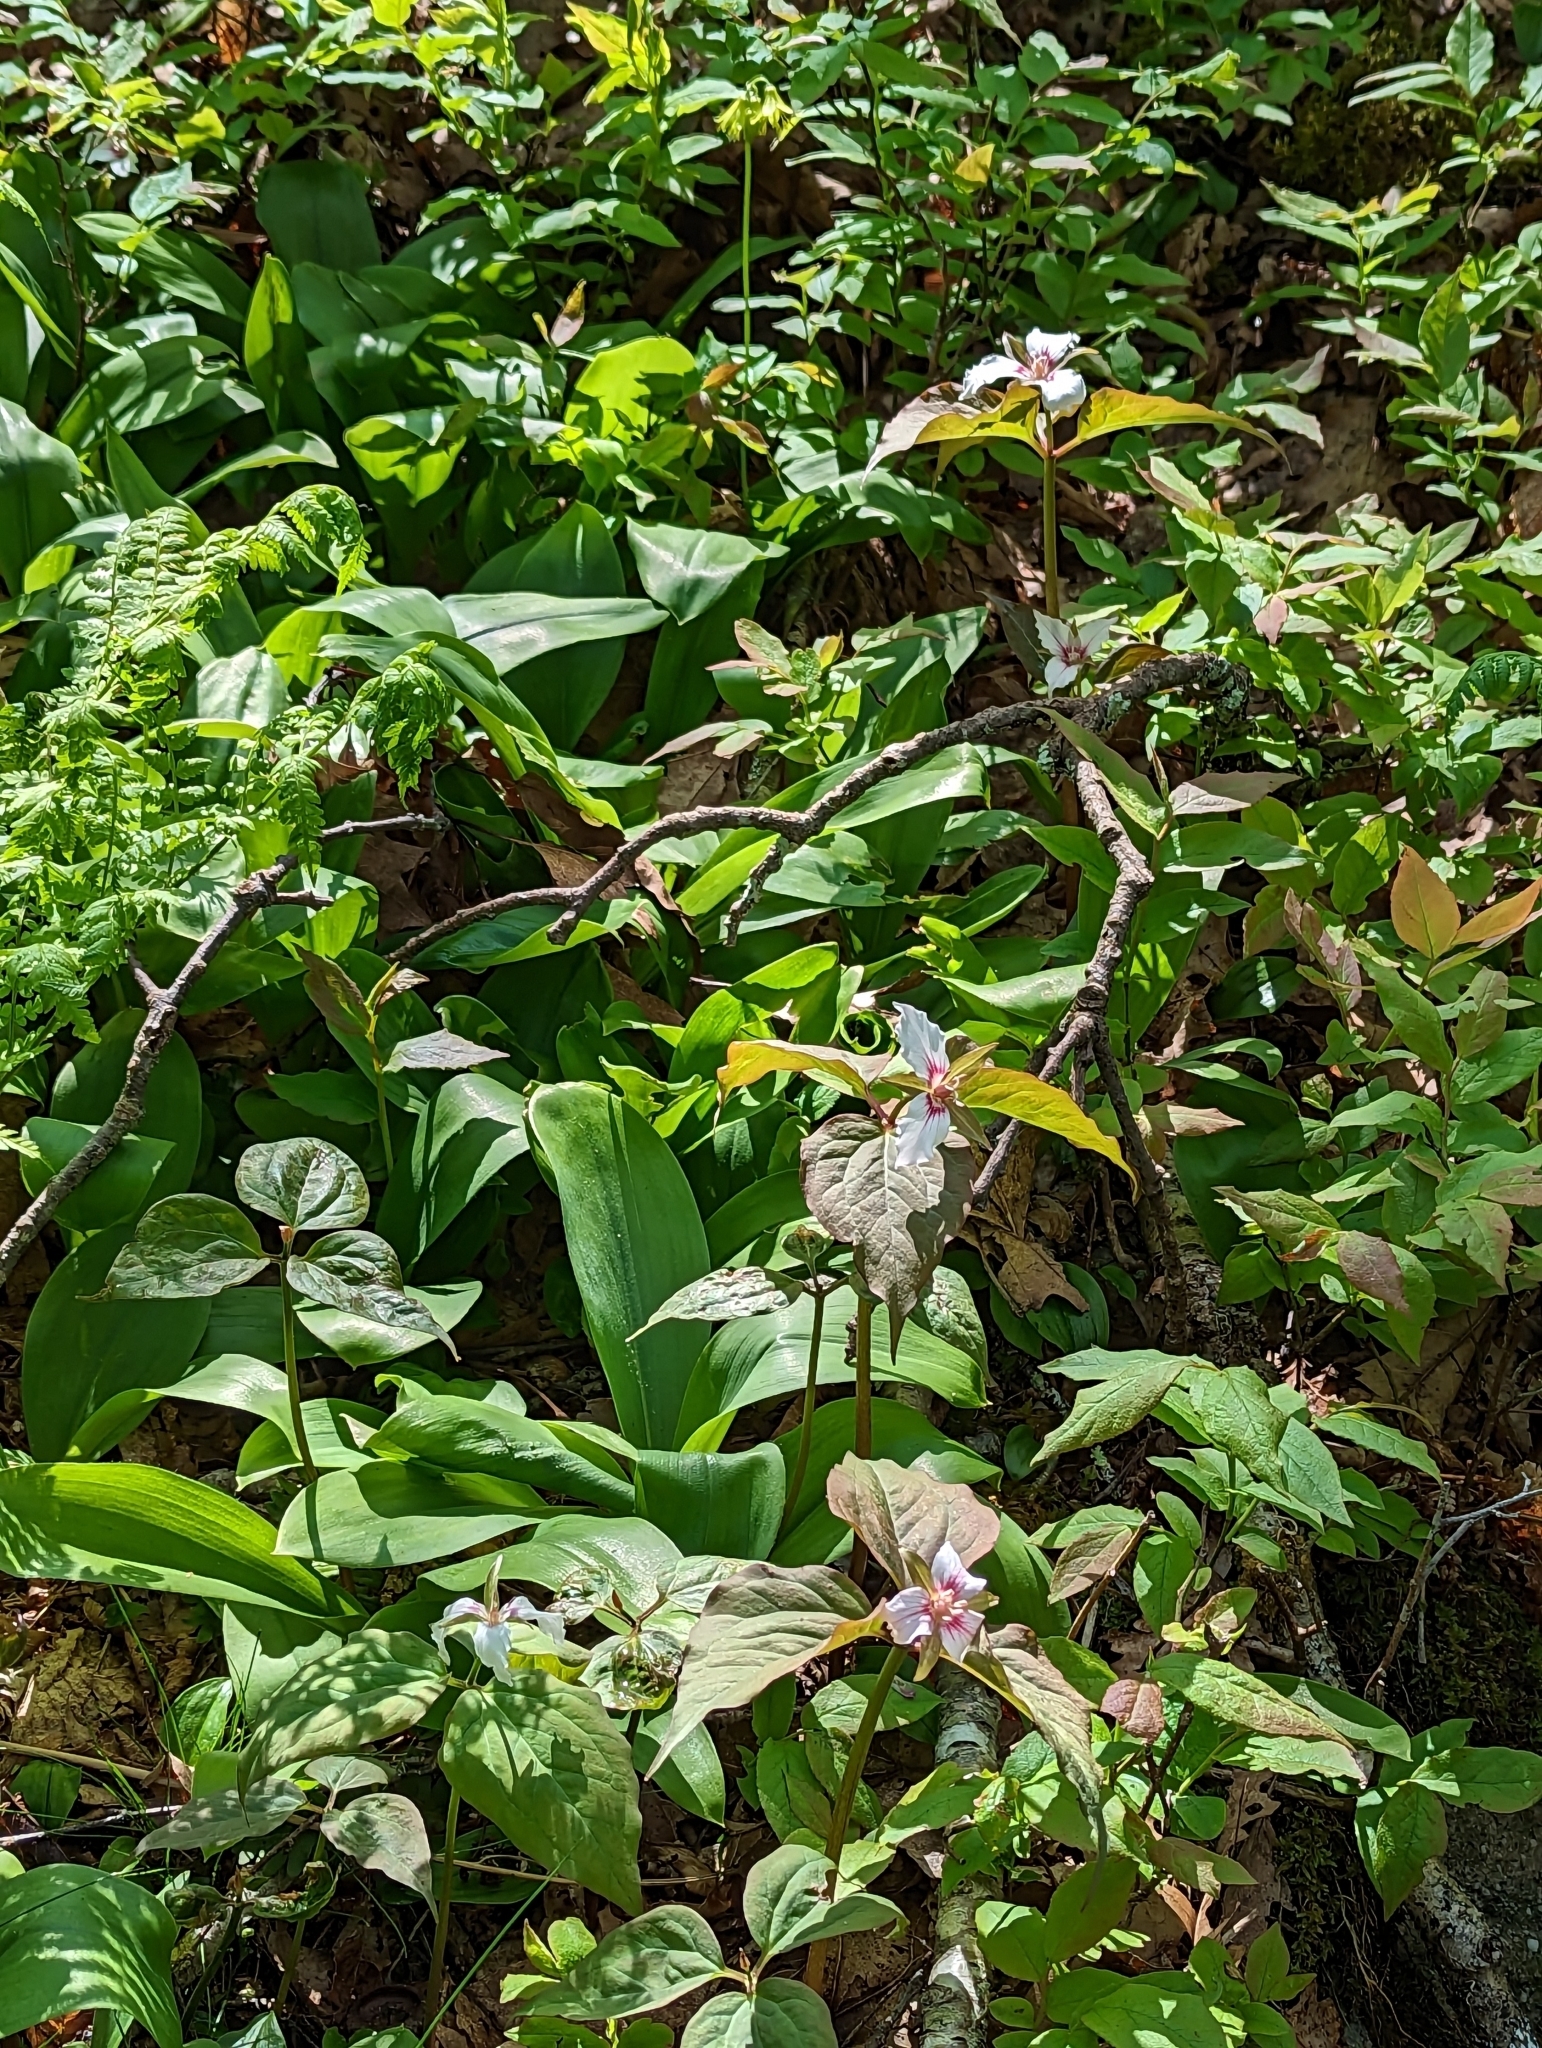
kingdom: Plantae
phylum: Tracheophyta
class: Liliopsida
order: Liliales
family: Melanthiaceae
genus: Trillium
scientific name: Trillium undulatum
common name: Paint trillium
